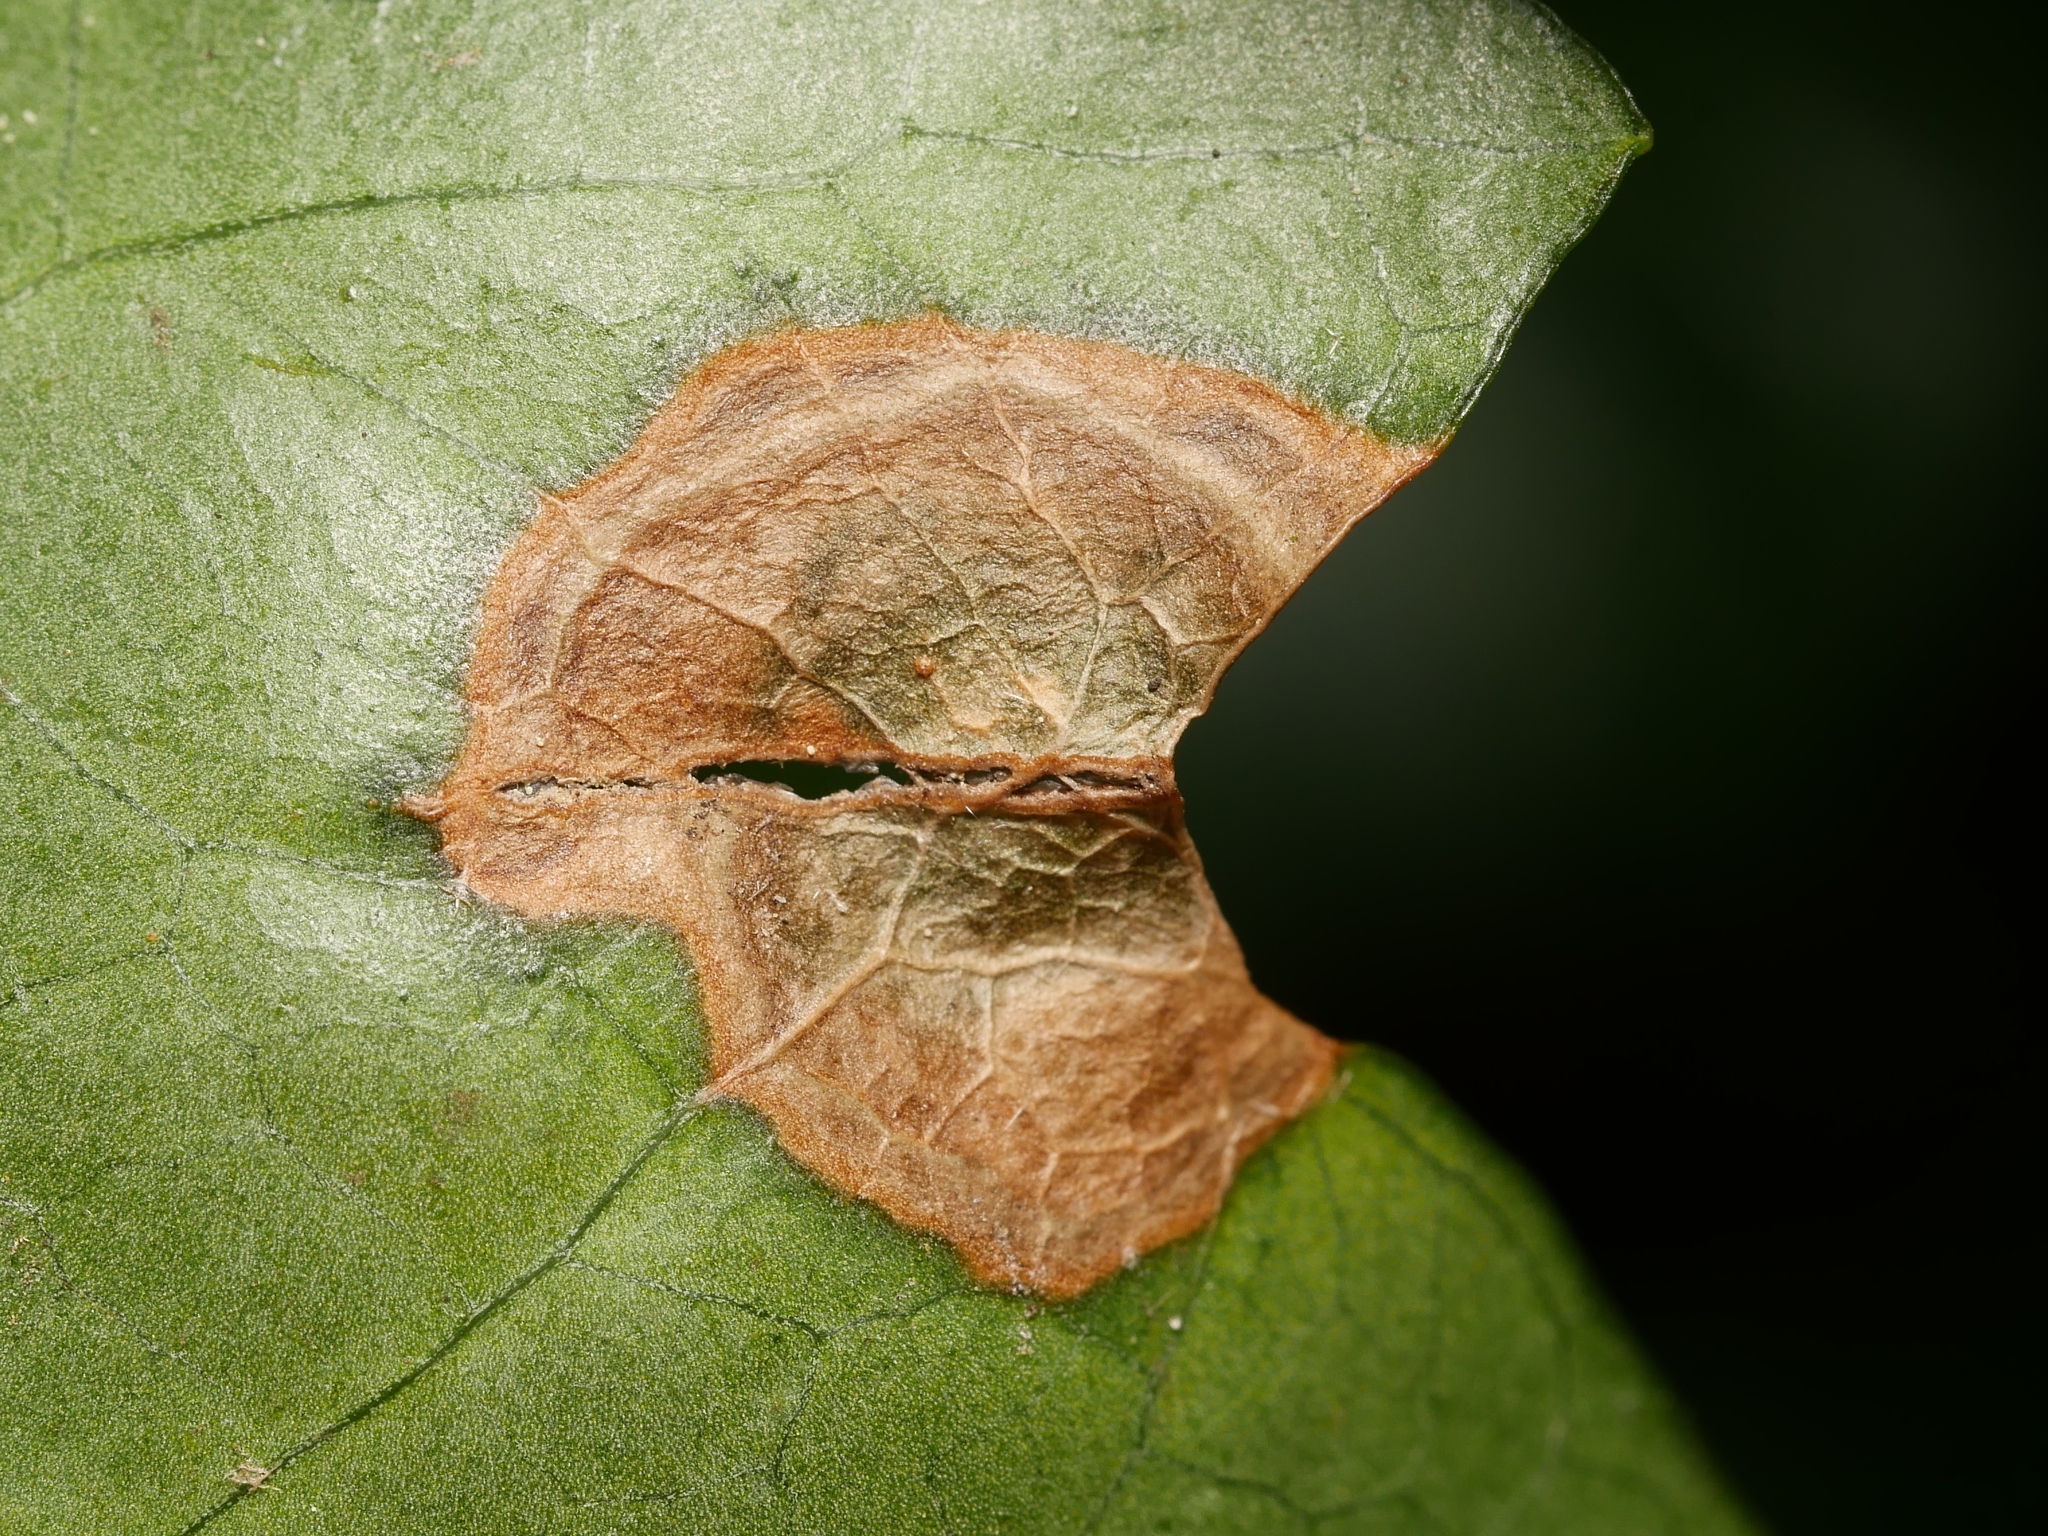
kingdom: Fungi
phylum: Ascomycota
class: Dothideomycetes
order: Pleosporales
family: Didymellaceae
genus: Boeremia
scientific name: Boeremia hedericola
